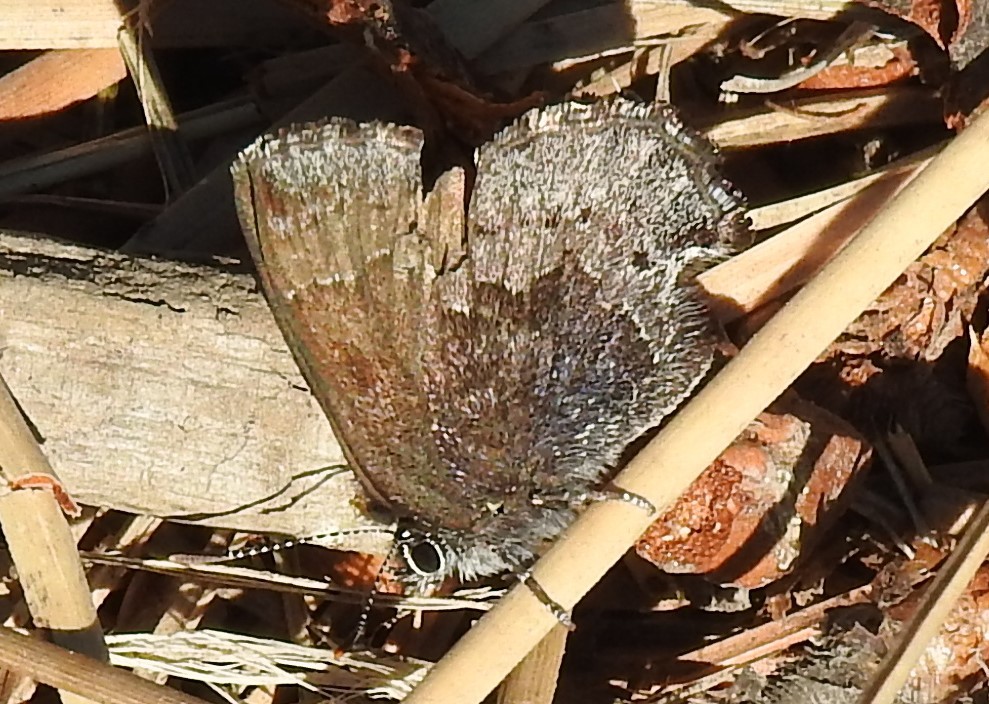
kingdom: Animalia
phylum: Arthropoda
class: Insecta
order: Lepidoptera
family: Lycaenidae
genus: Callophrys
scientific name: Callophrys polios
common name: Hoary elfin
